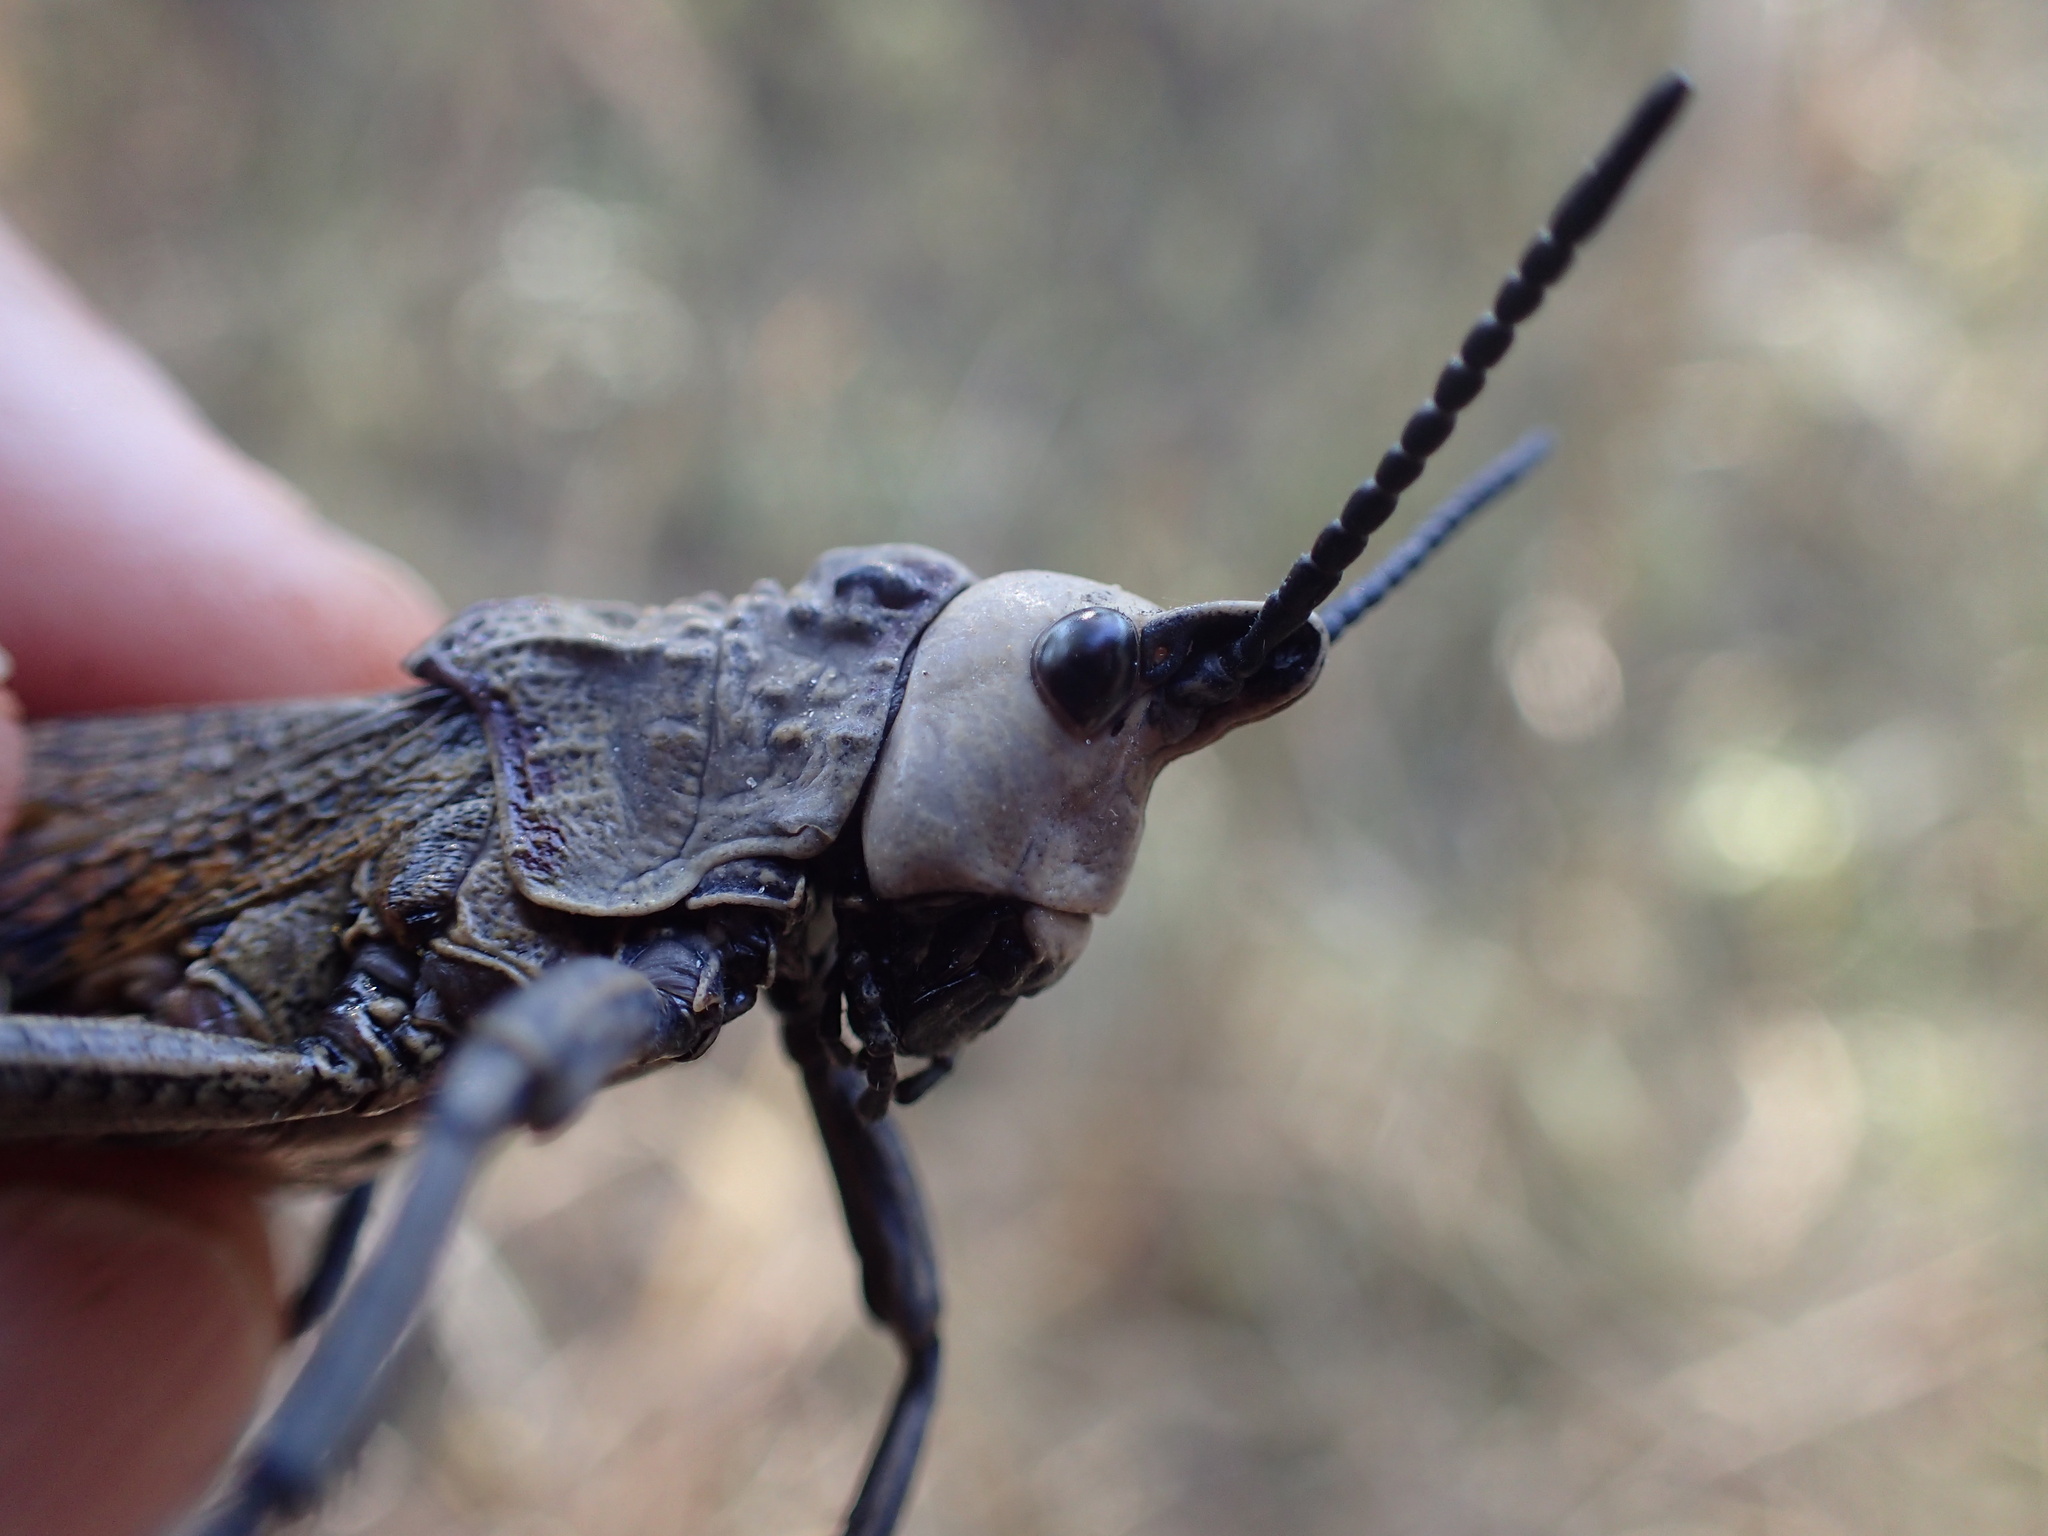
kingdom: Animalia
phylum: Arthropoda
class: Insecta
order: Orthoptera
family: Pyrgomorphidae
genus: Dictyophorus
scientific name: Dictyophorus griseus
